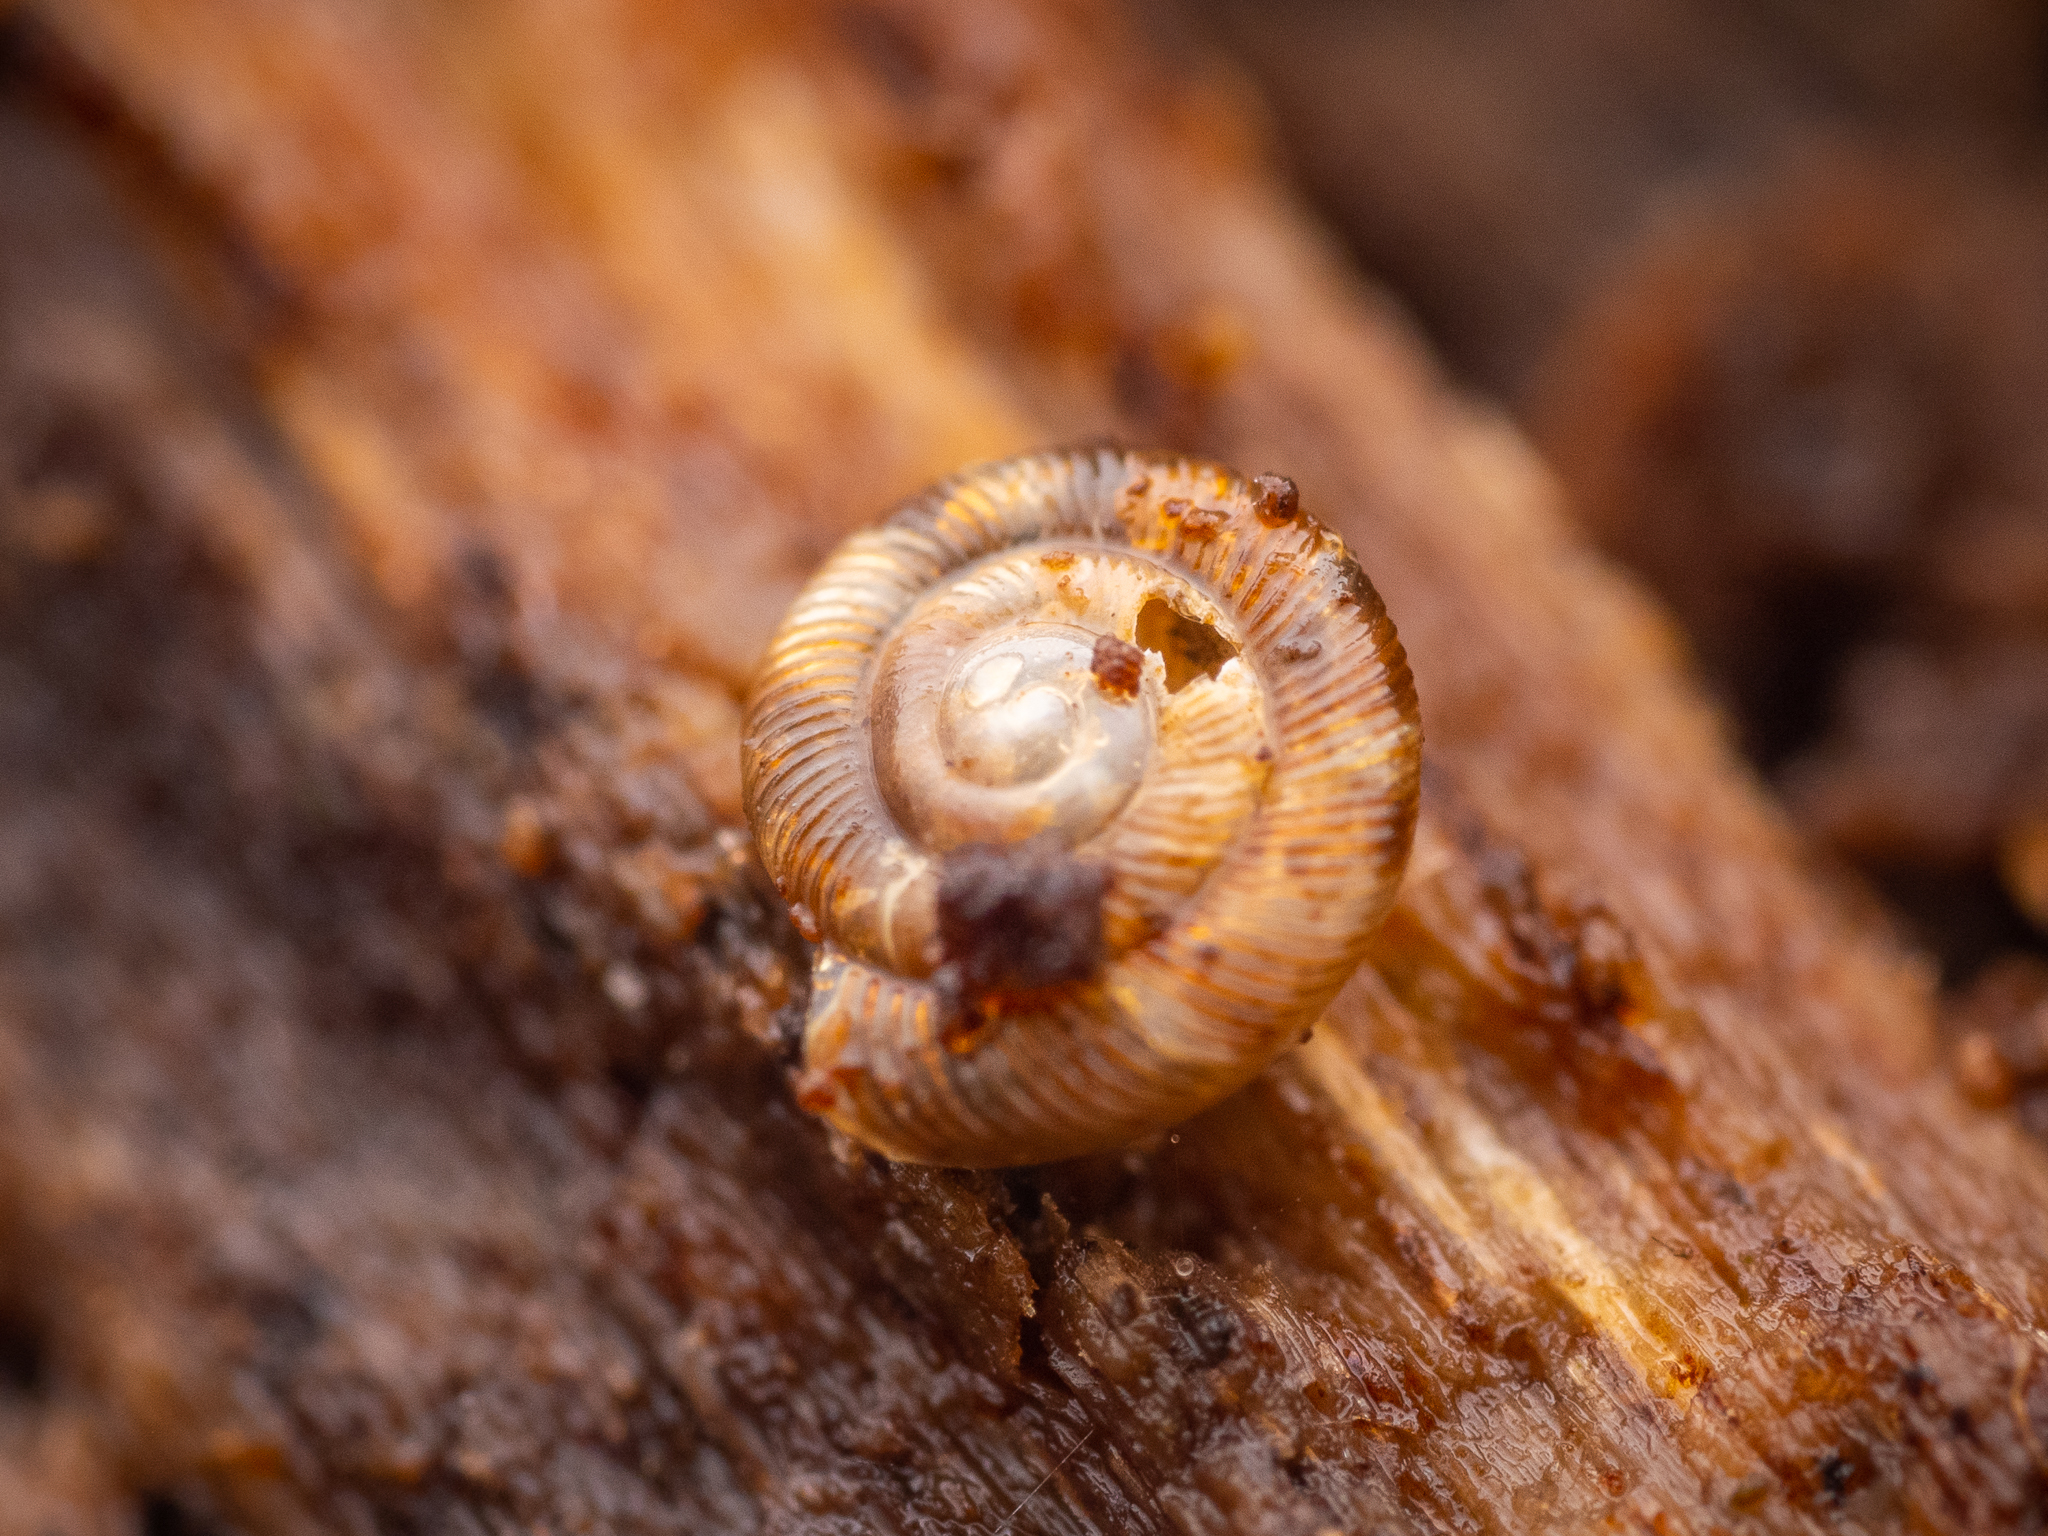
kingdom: Animalia
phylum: Mollusca
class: Gastropoda
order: Stylommatophora
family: Discidae
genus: Discus
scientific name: Discus rotundatus
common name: Rounded snail
